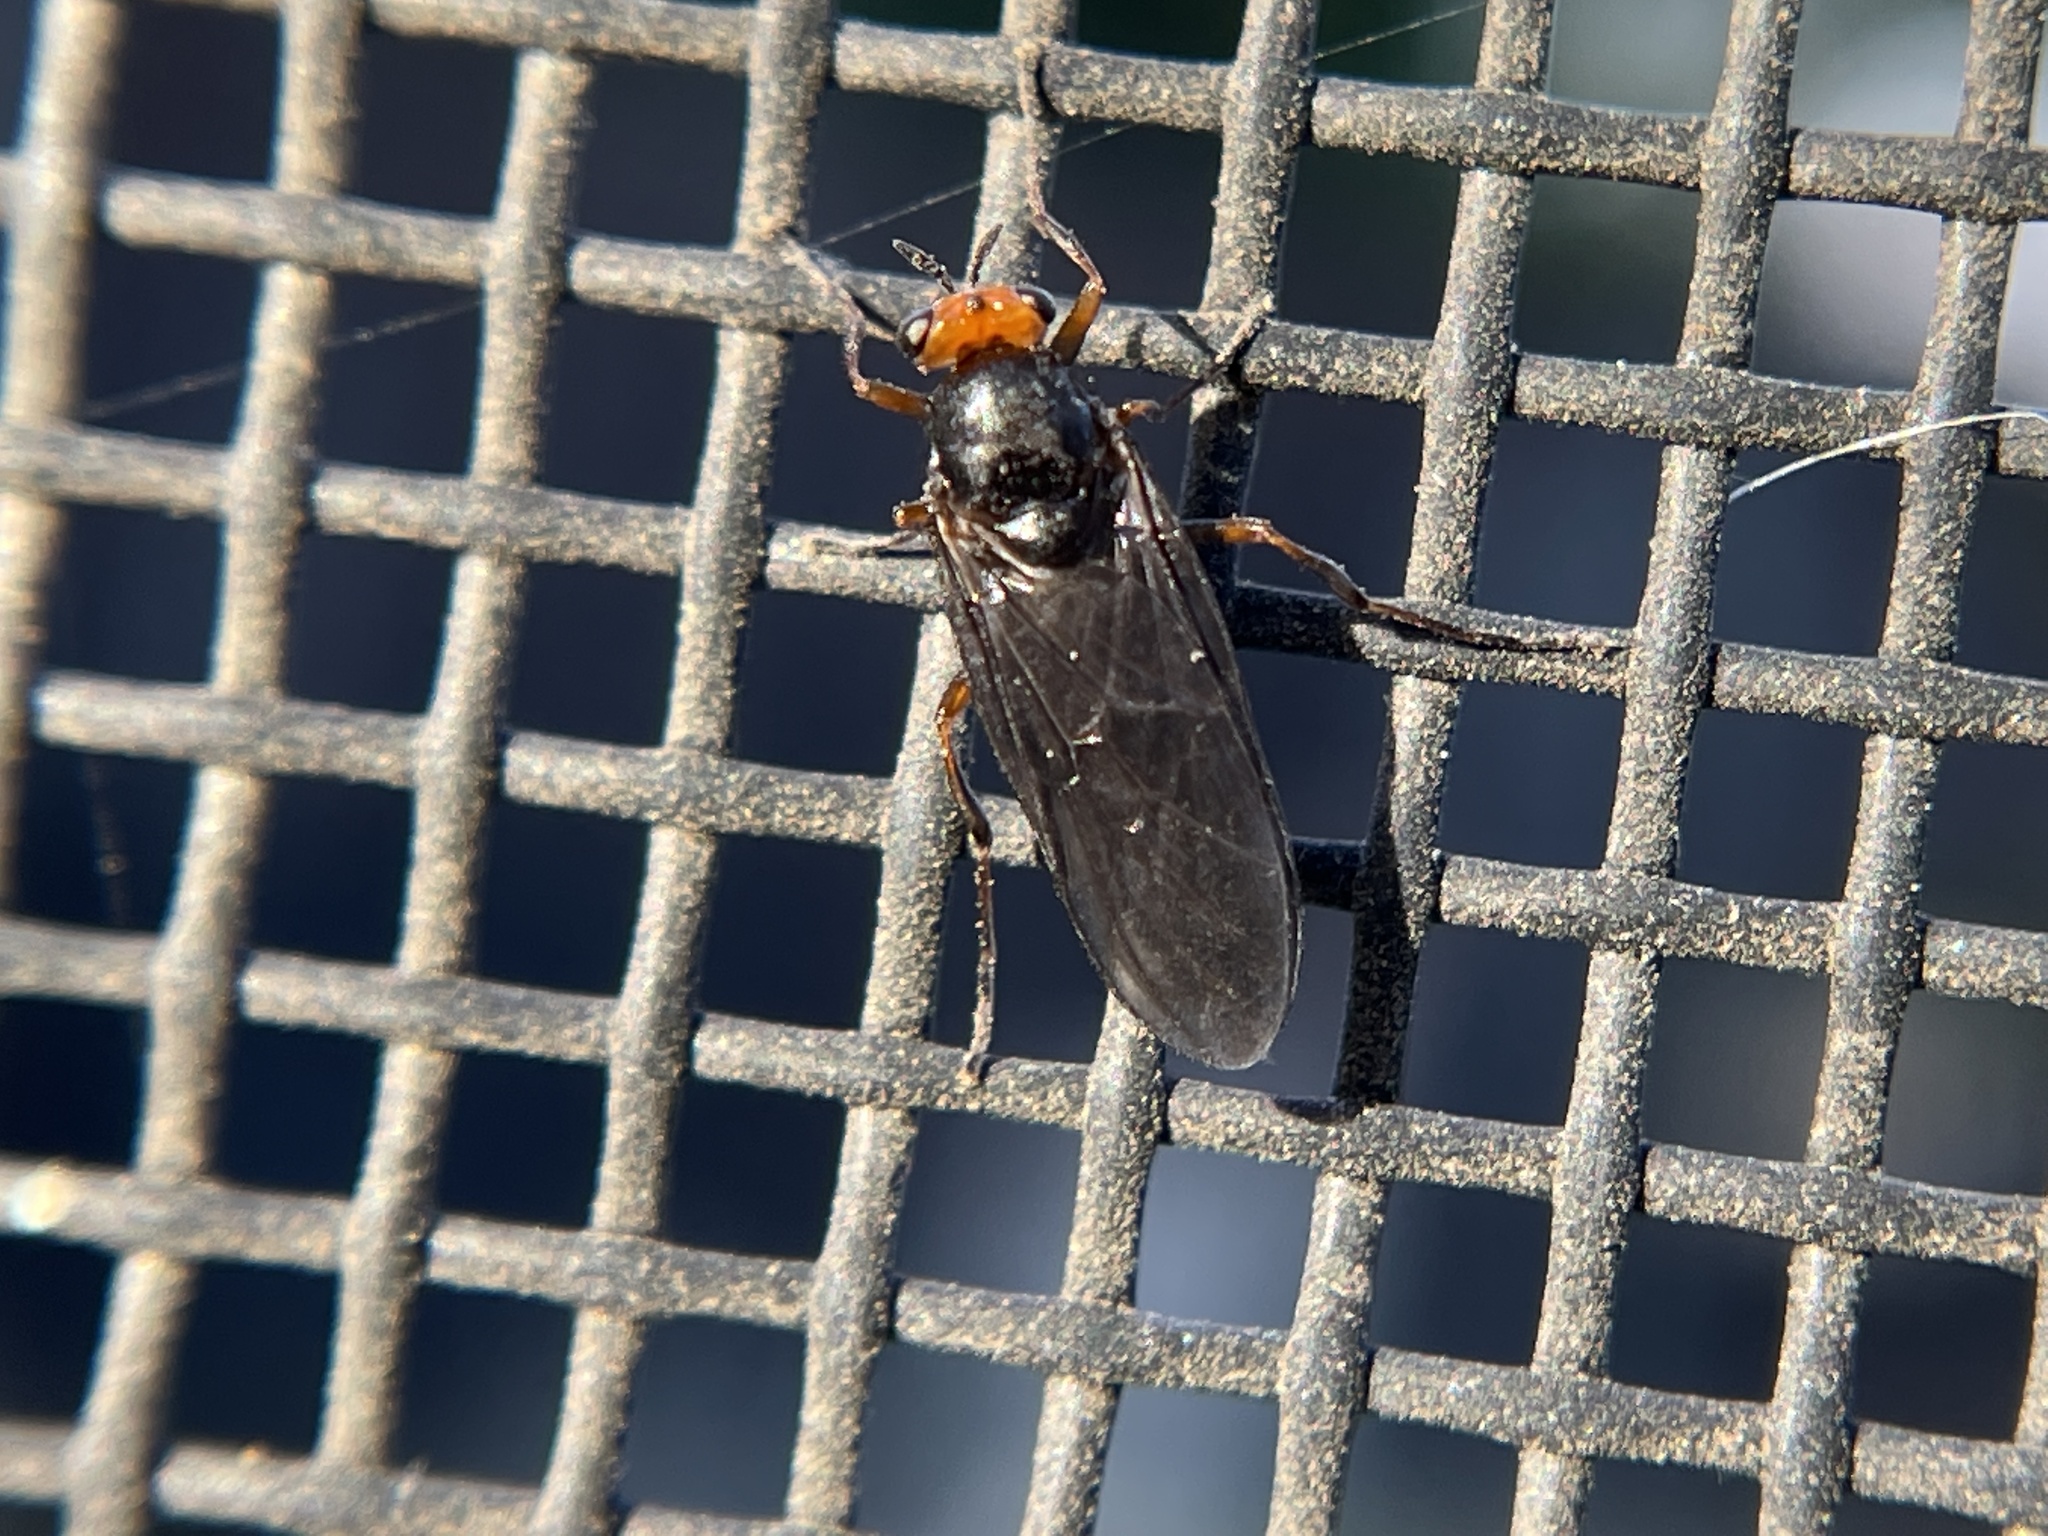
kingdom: Animalia
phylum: Arthropoda
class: Insecta
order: Diptera
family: Stratiomyidae
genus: Inopus
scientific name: Inopus rubriceps
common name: Soldier fly
